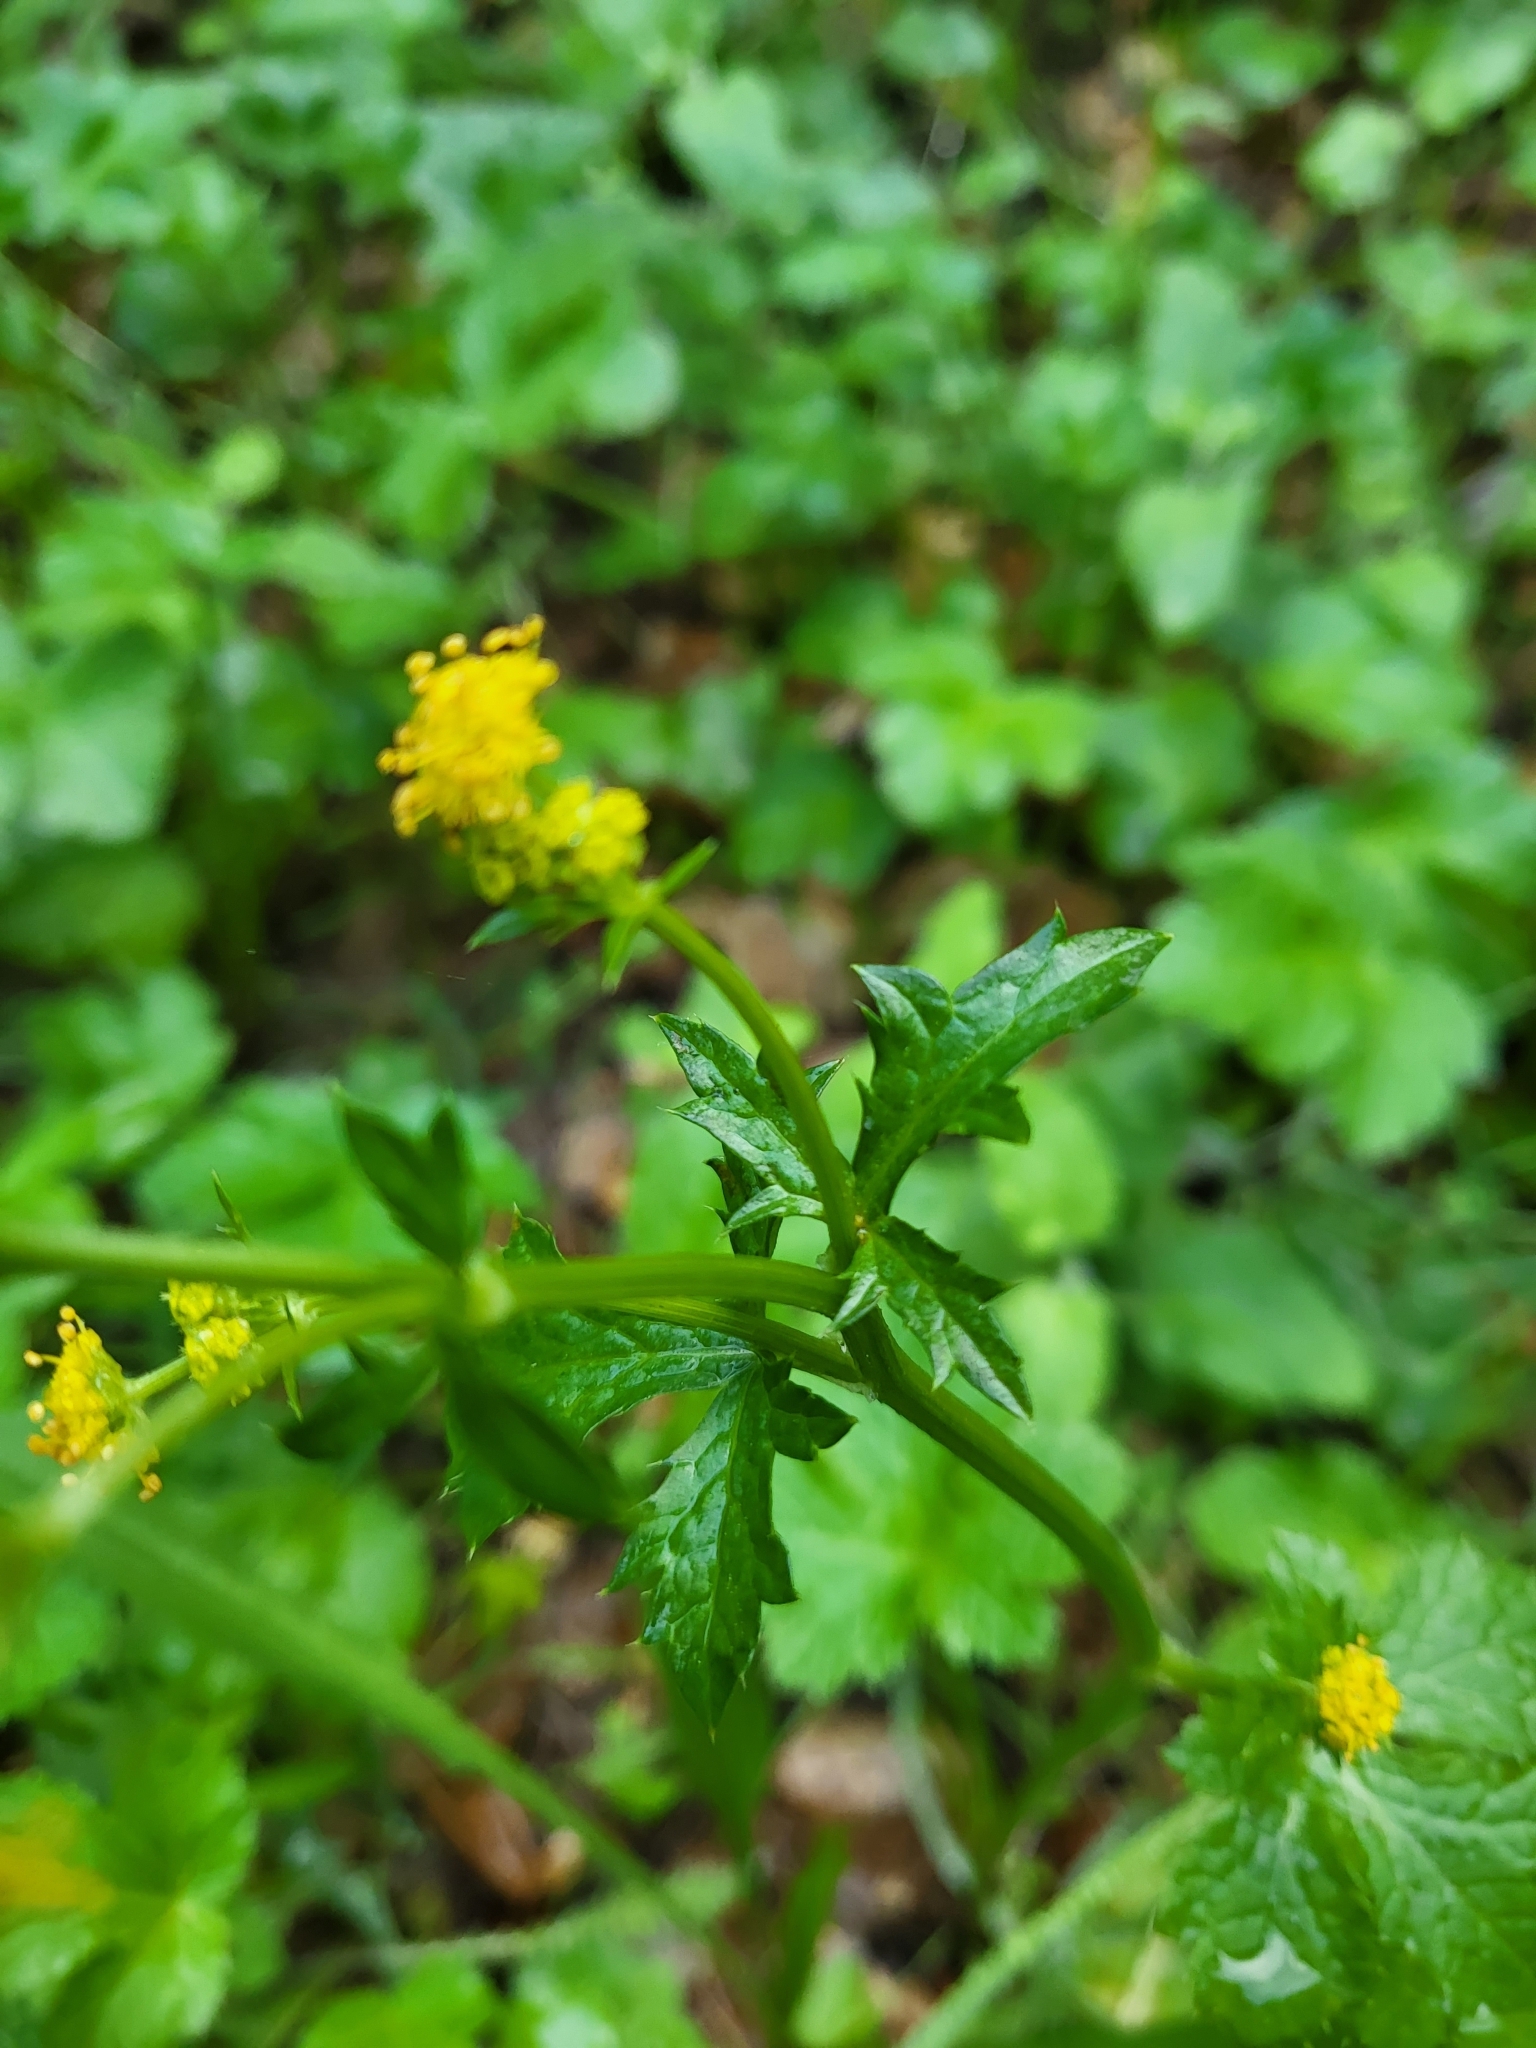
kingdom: Plantae
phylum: Tracheophyta
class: Magnoliopsida
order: Apiales
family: Apiaceae
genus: Sanicula
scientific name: Sanicula crassicaulis
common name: Western snakeroot
